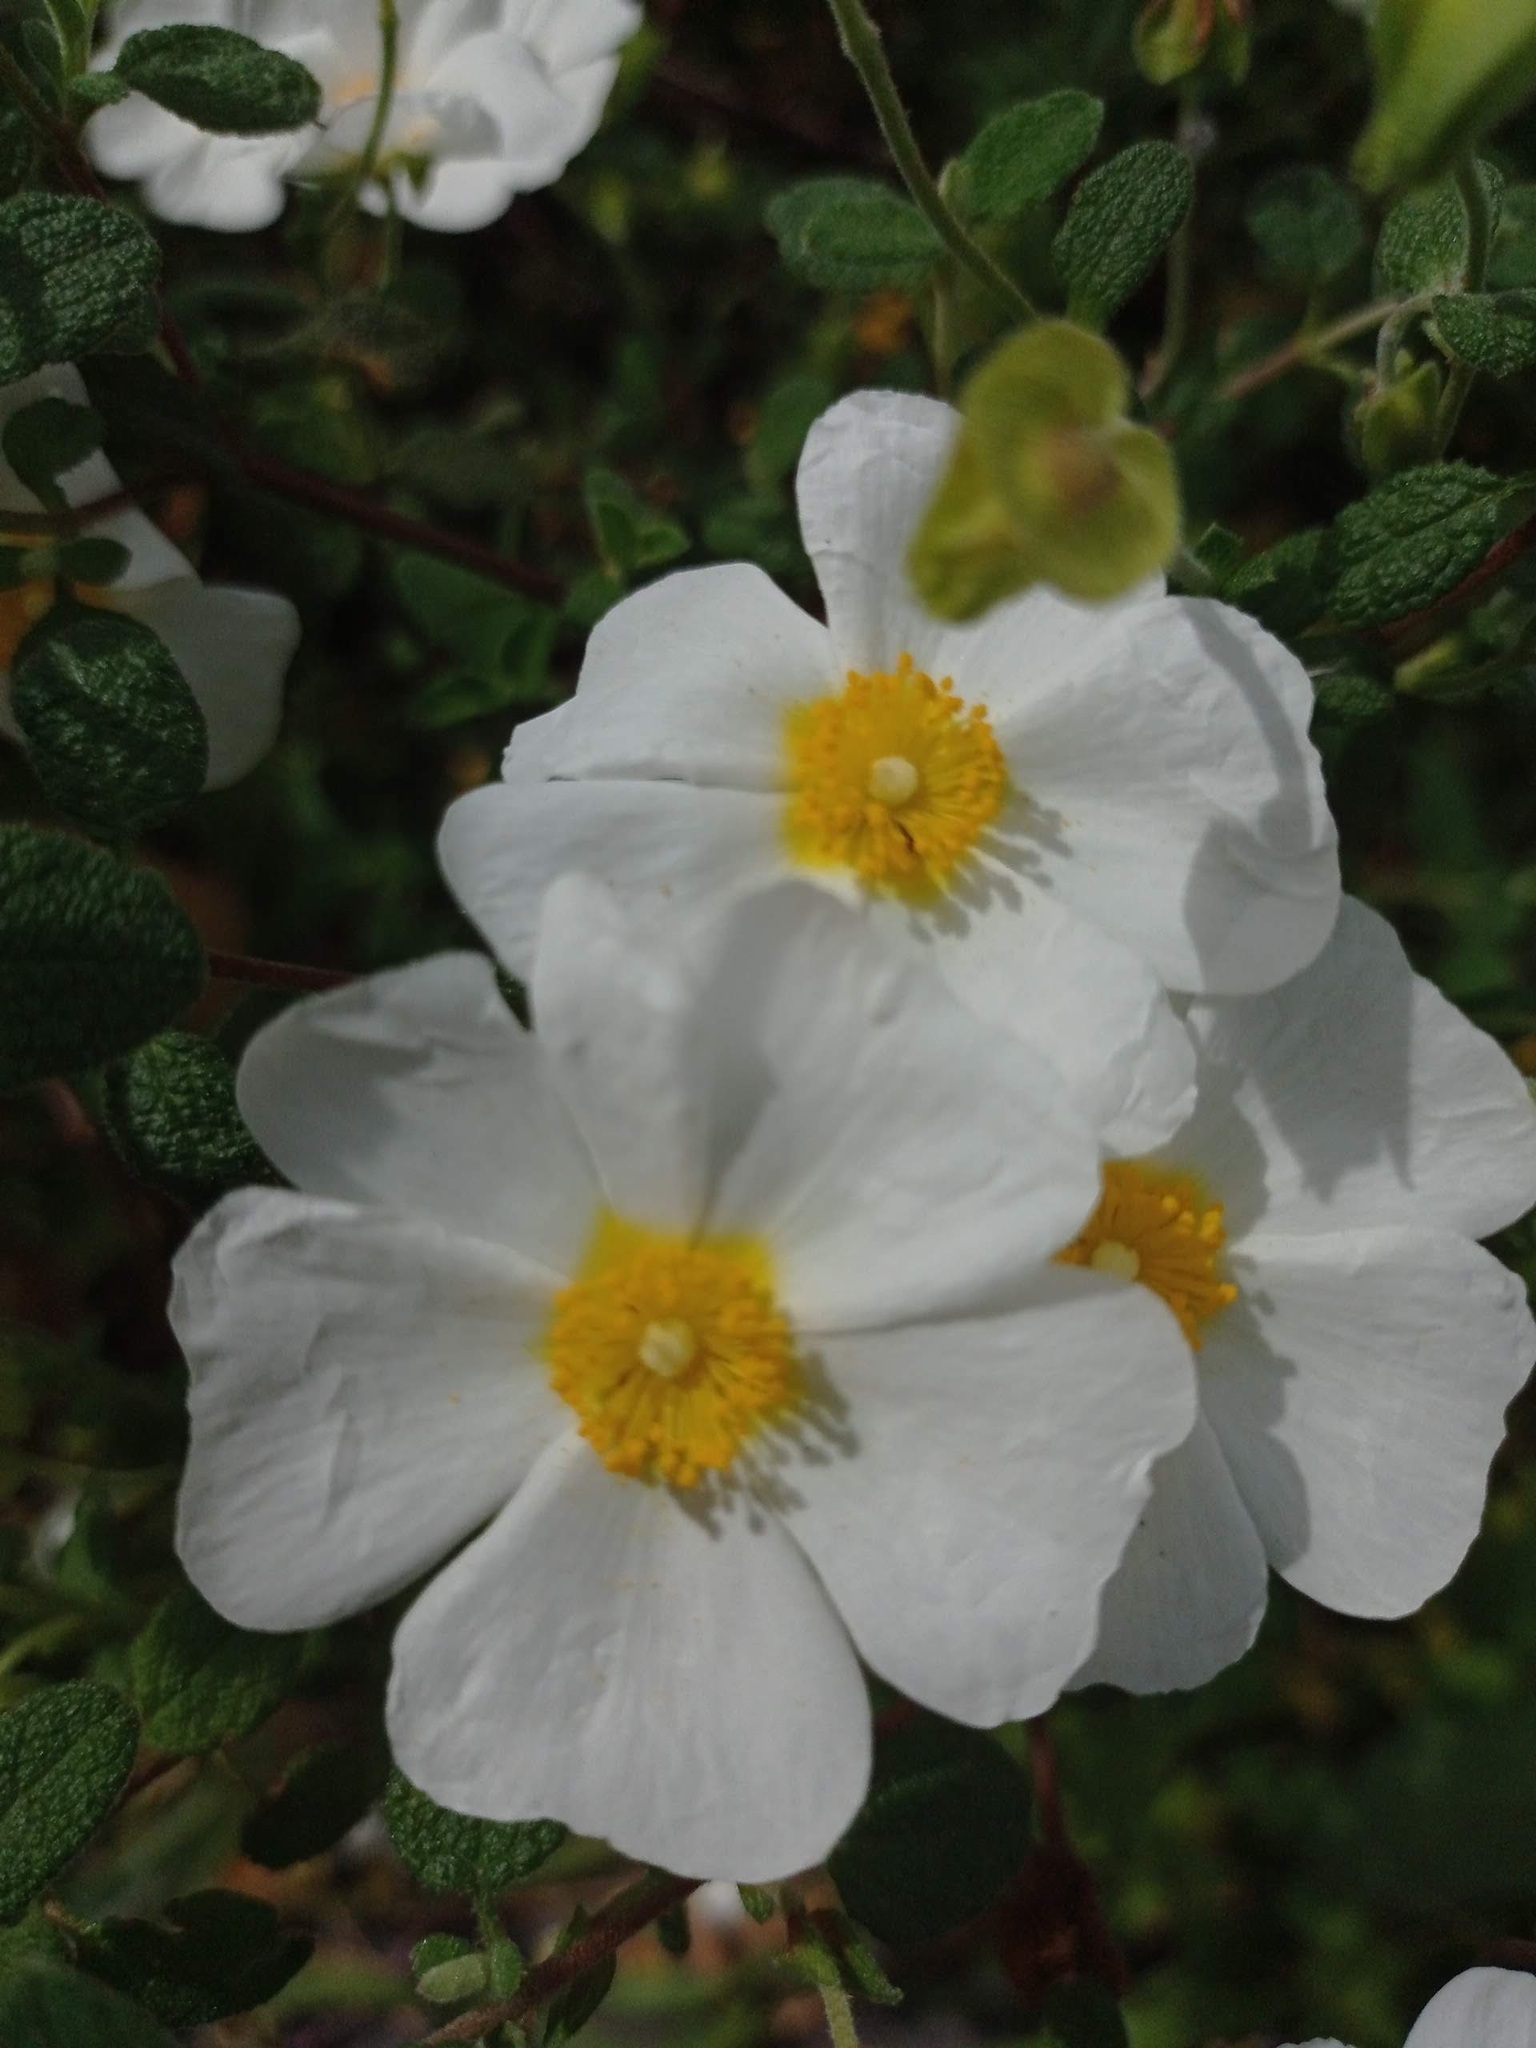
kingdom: Plantae
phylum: Tracheophyta
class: Magnoliopsida
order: Malvales
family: Cistaceae
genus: Cistus
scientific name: Cistus salviifolius
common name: Salvia cistus
